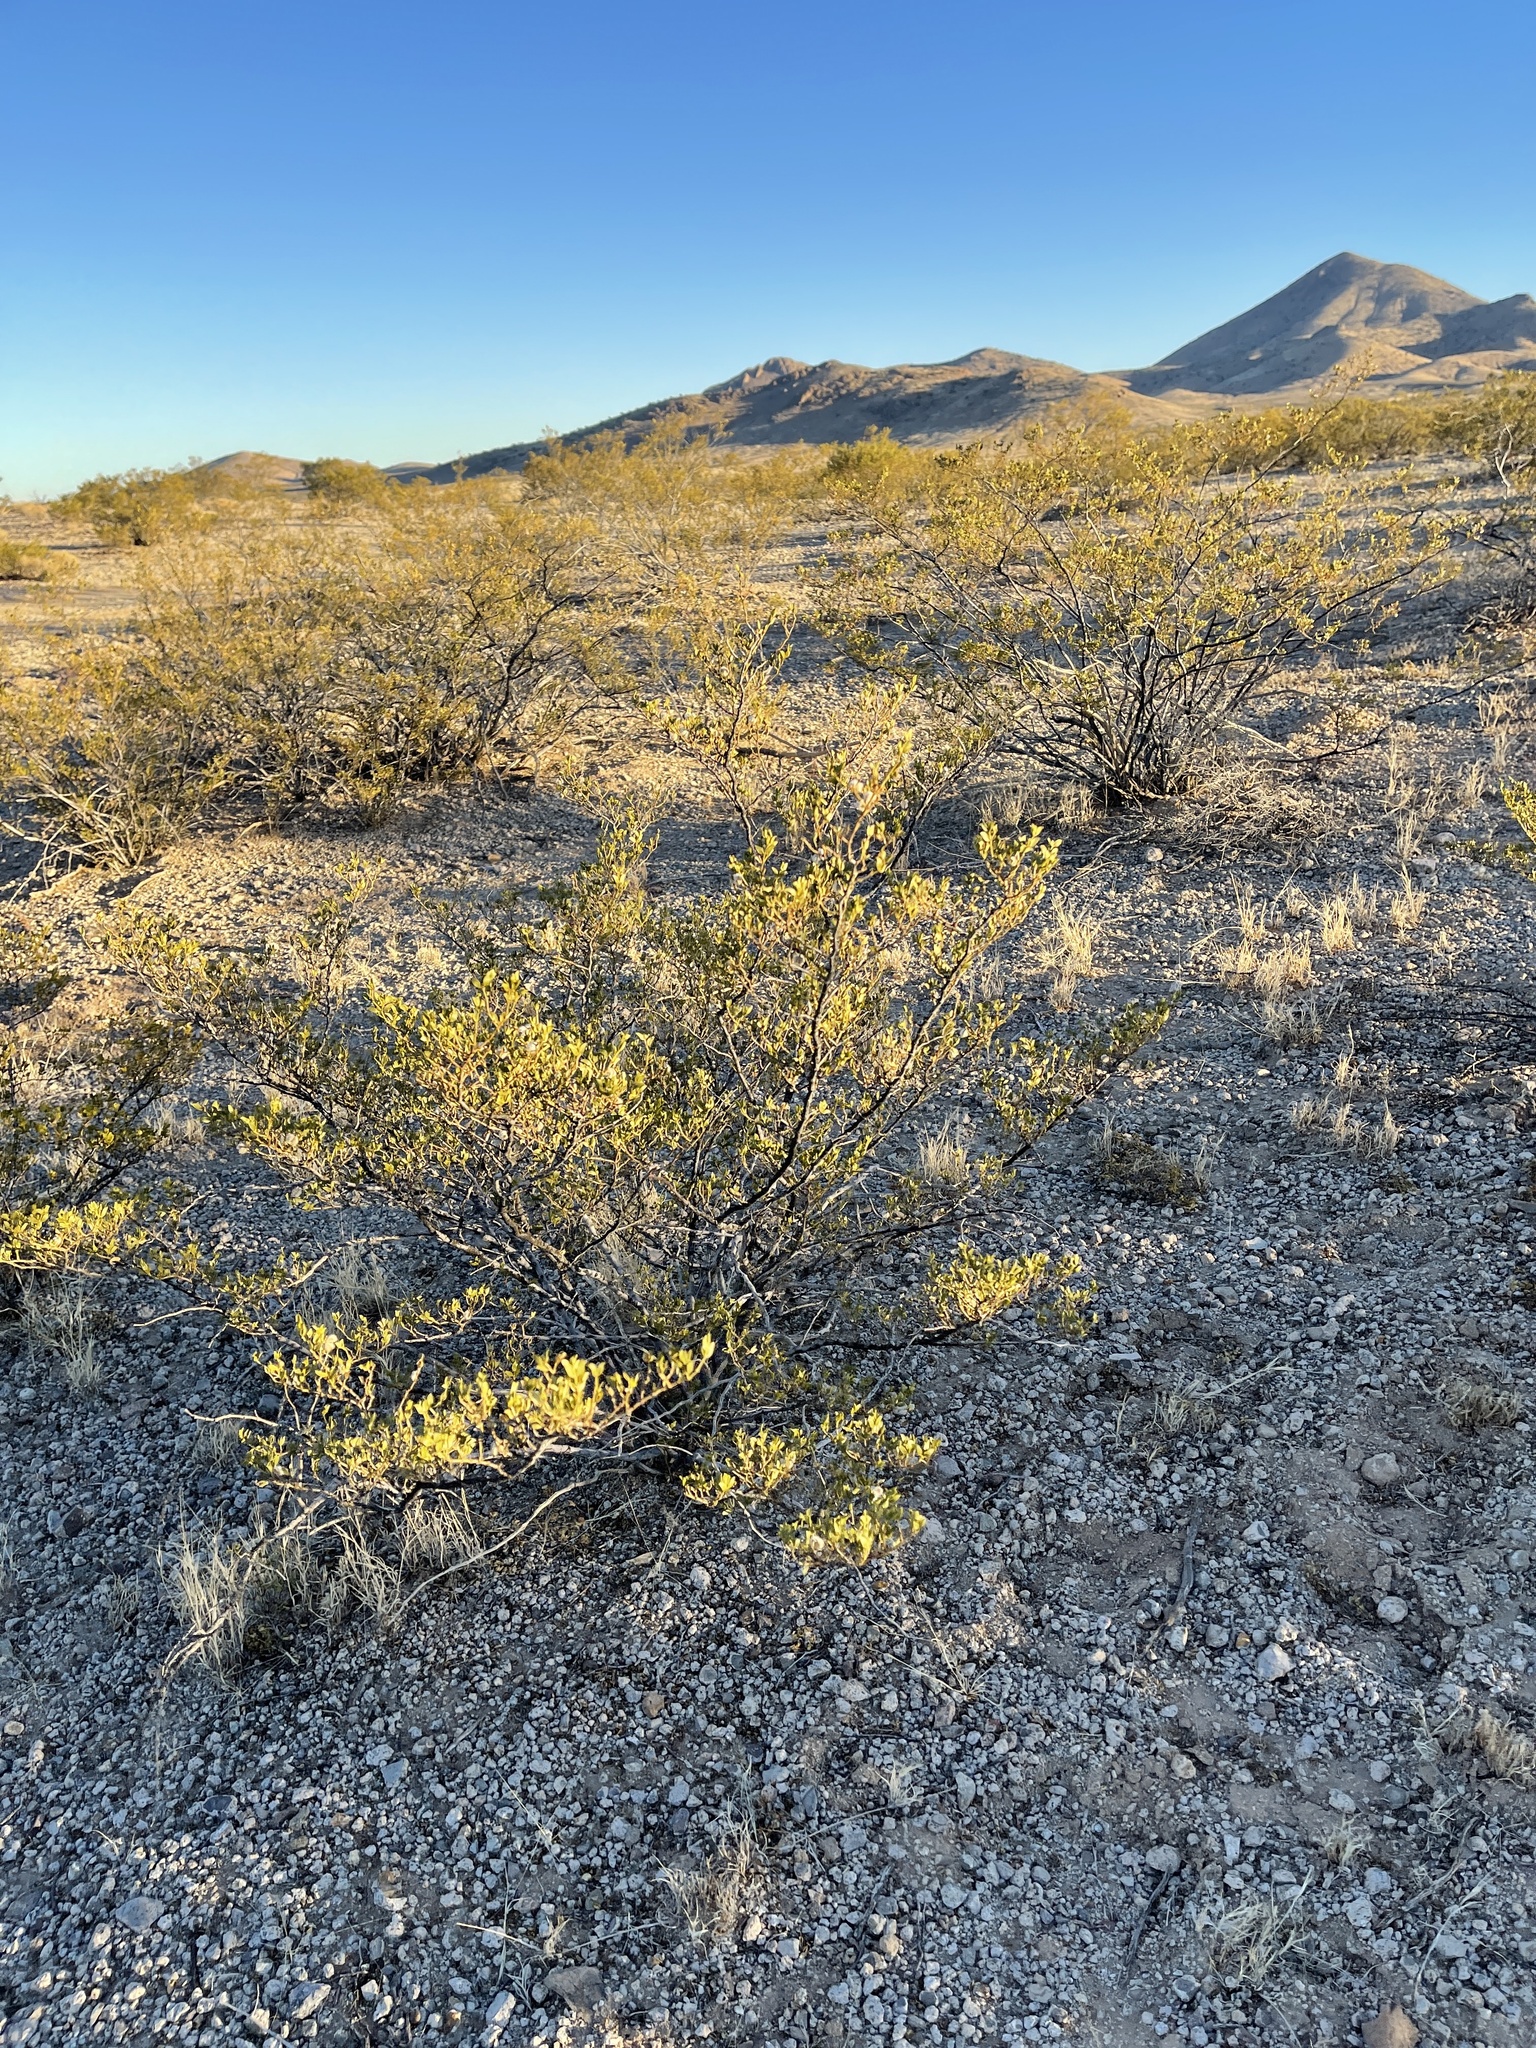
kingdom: Plantae
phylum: Tracheophyta
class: Magnoliopsida
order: Zygophyllales
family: Zygophyllaceae
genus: Larrea
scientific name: Larrea tridentata
